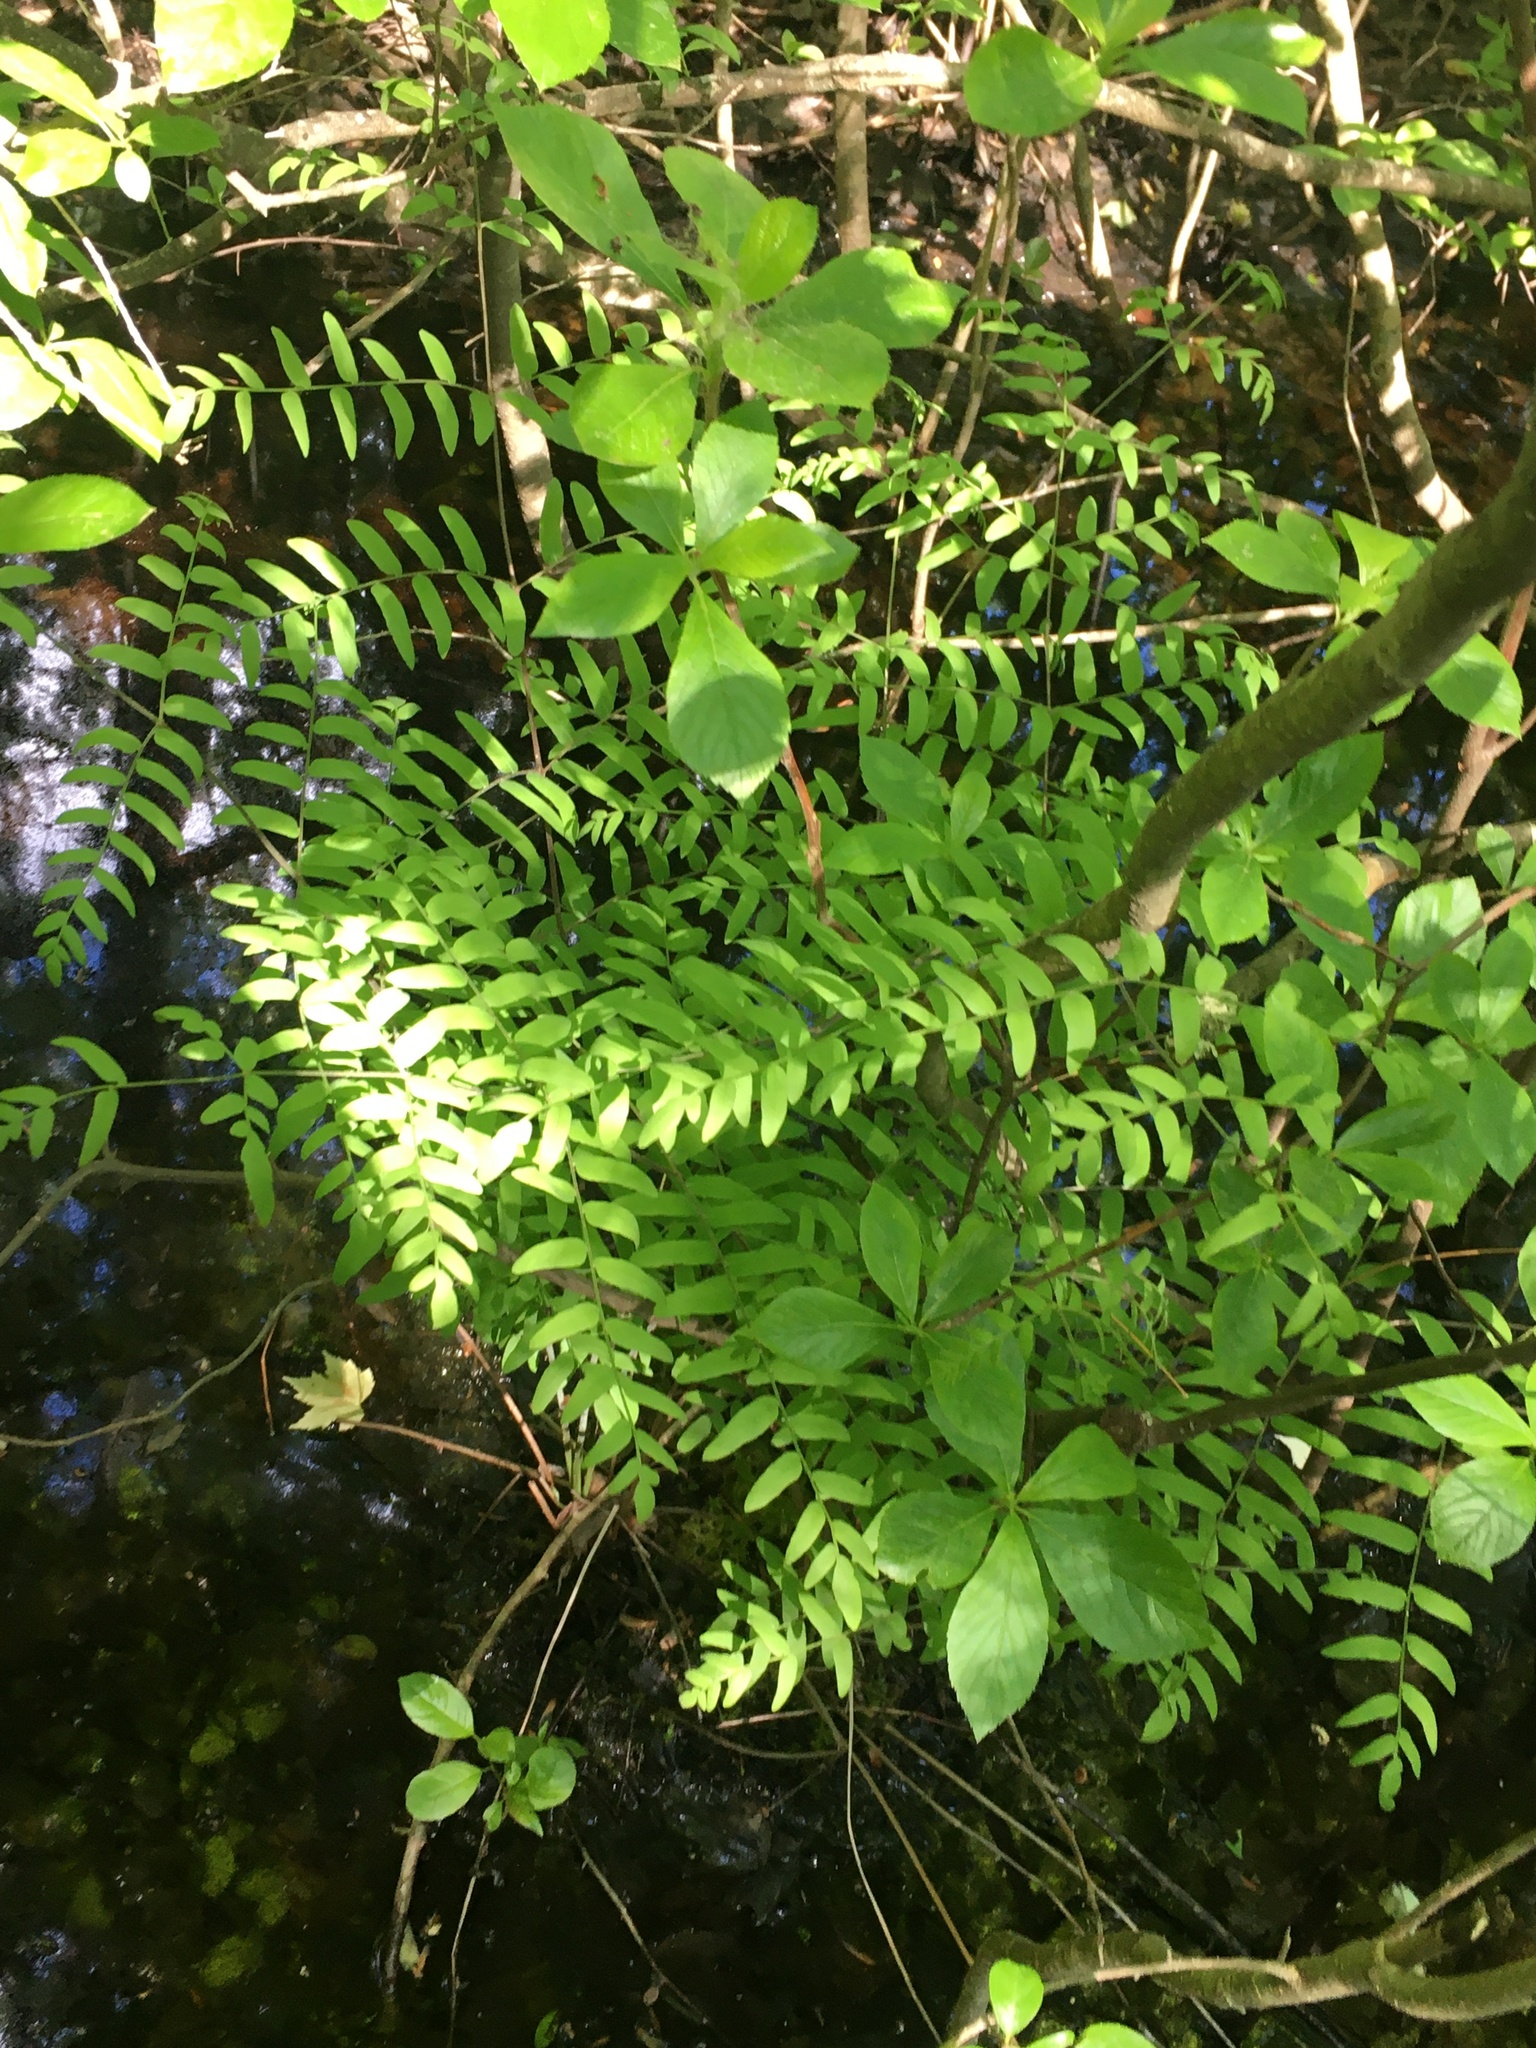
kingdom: Plantae
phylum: Tracheophyta
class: Polypodiopsida
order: Osmundales
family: Osmundaceae
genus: Osmunda
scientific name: Osmunda spectabilis
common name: American royal fern
